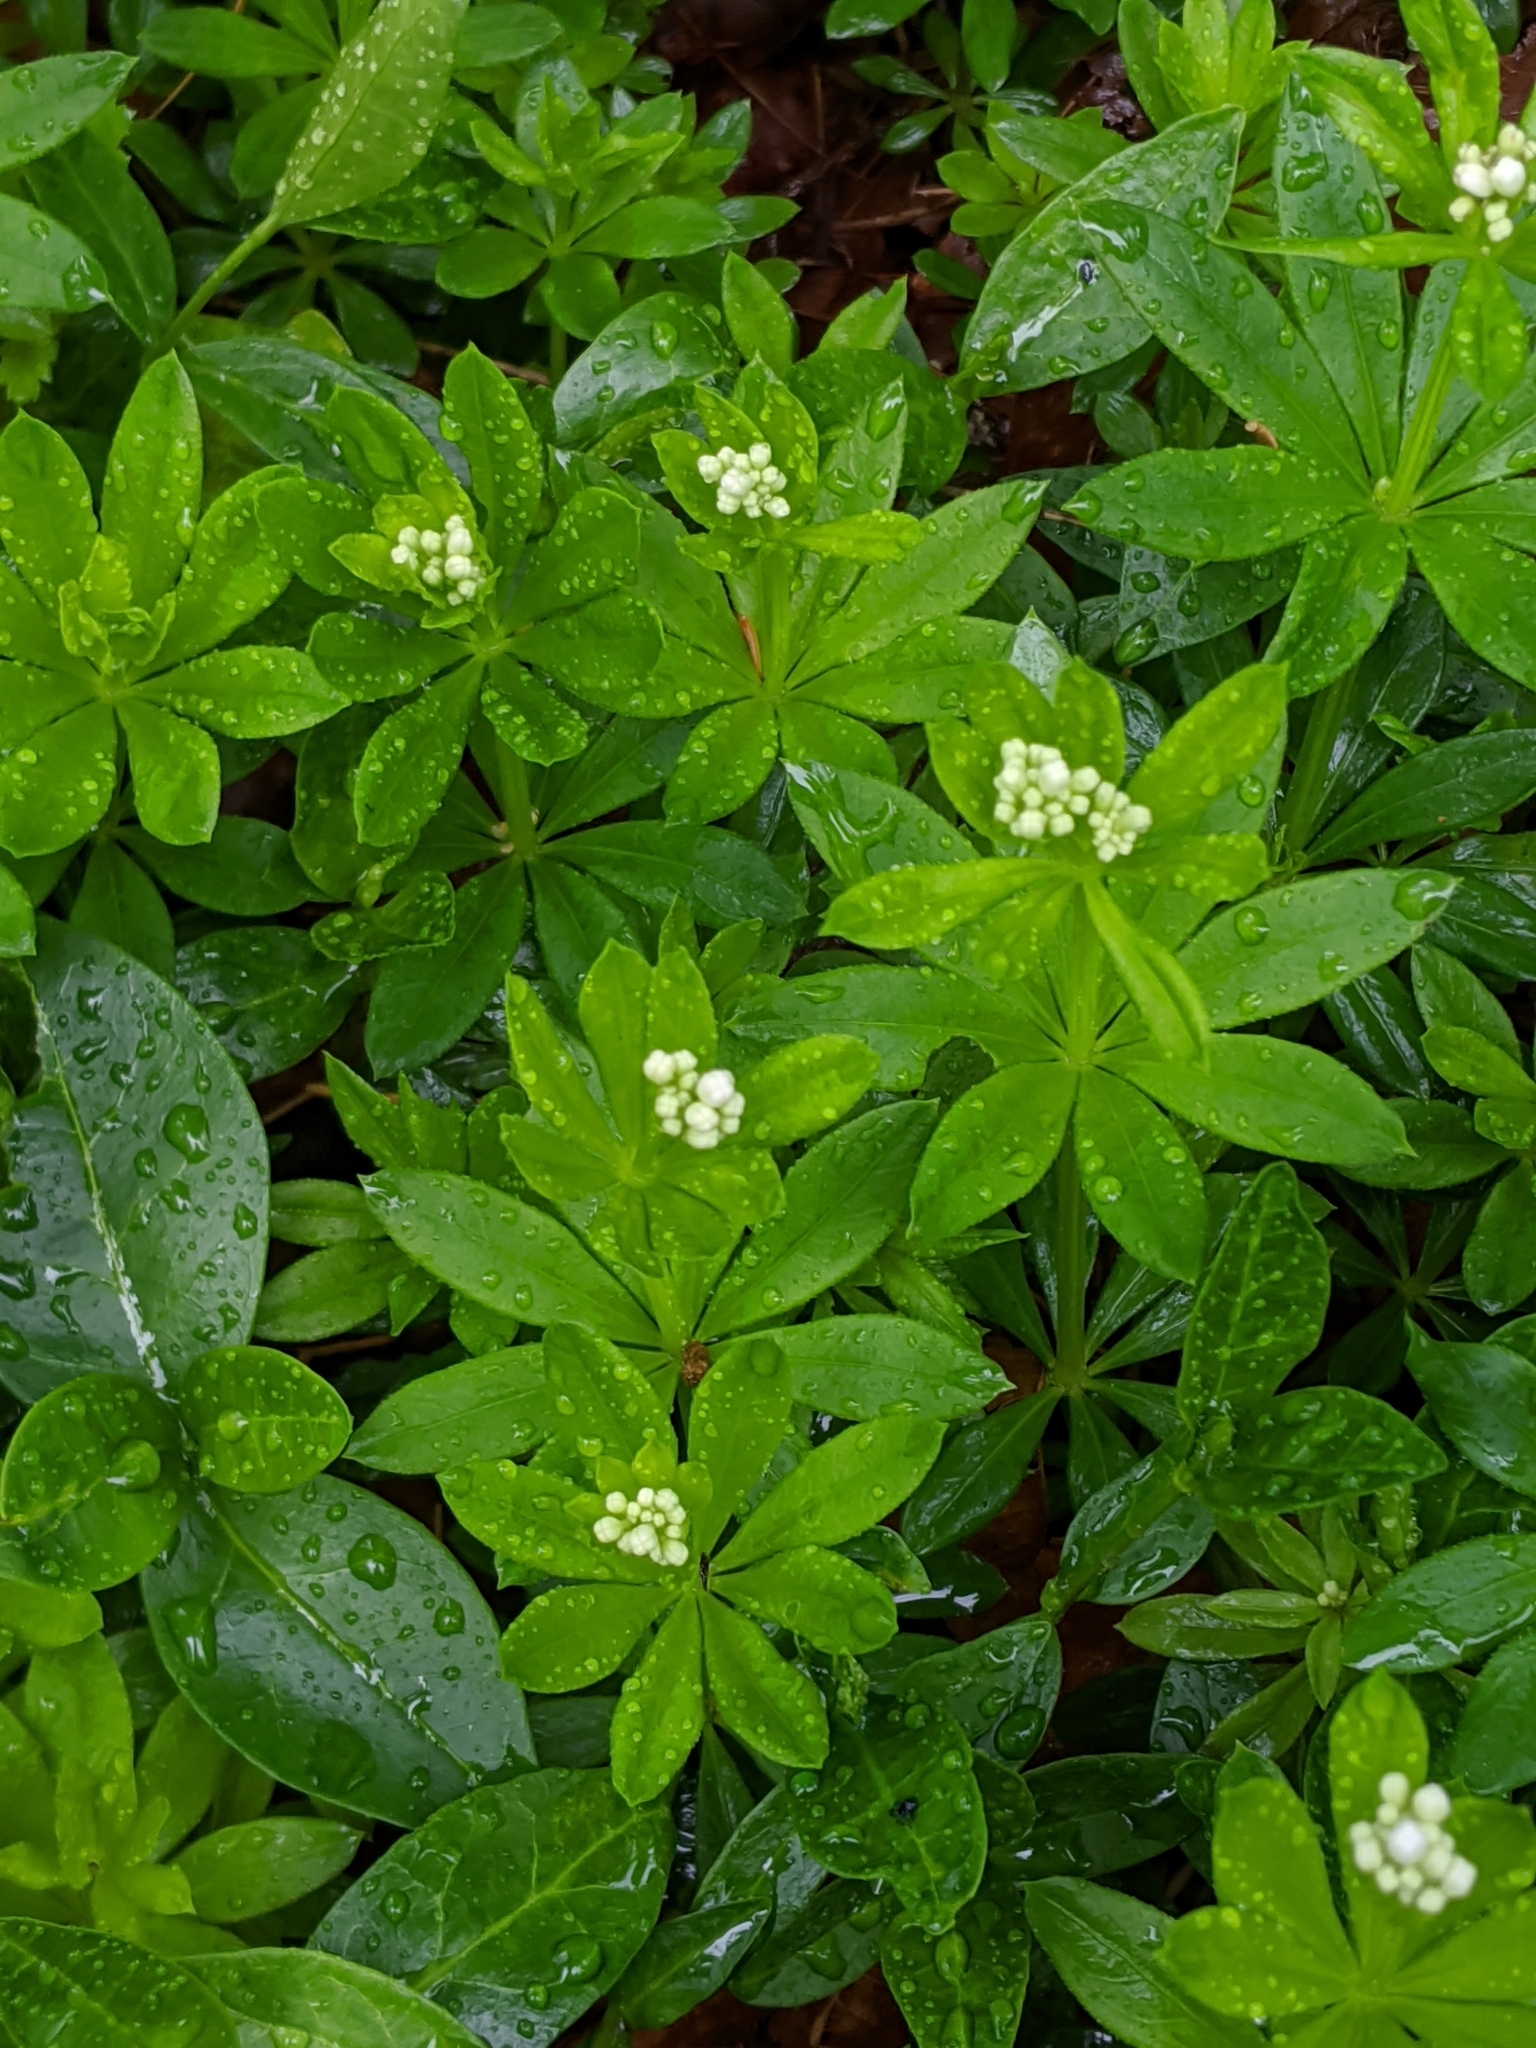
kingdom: Plantae
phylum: Tracheophyta
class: Magnoliopsida
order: Gentianales
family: Rubiaceae
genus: Galium
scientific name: Galium odoratum
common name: Sweet woodruff
